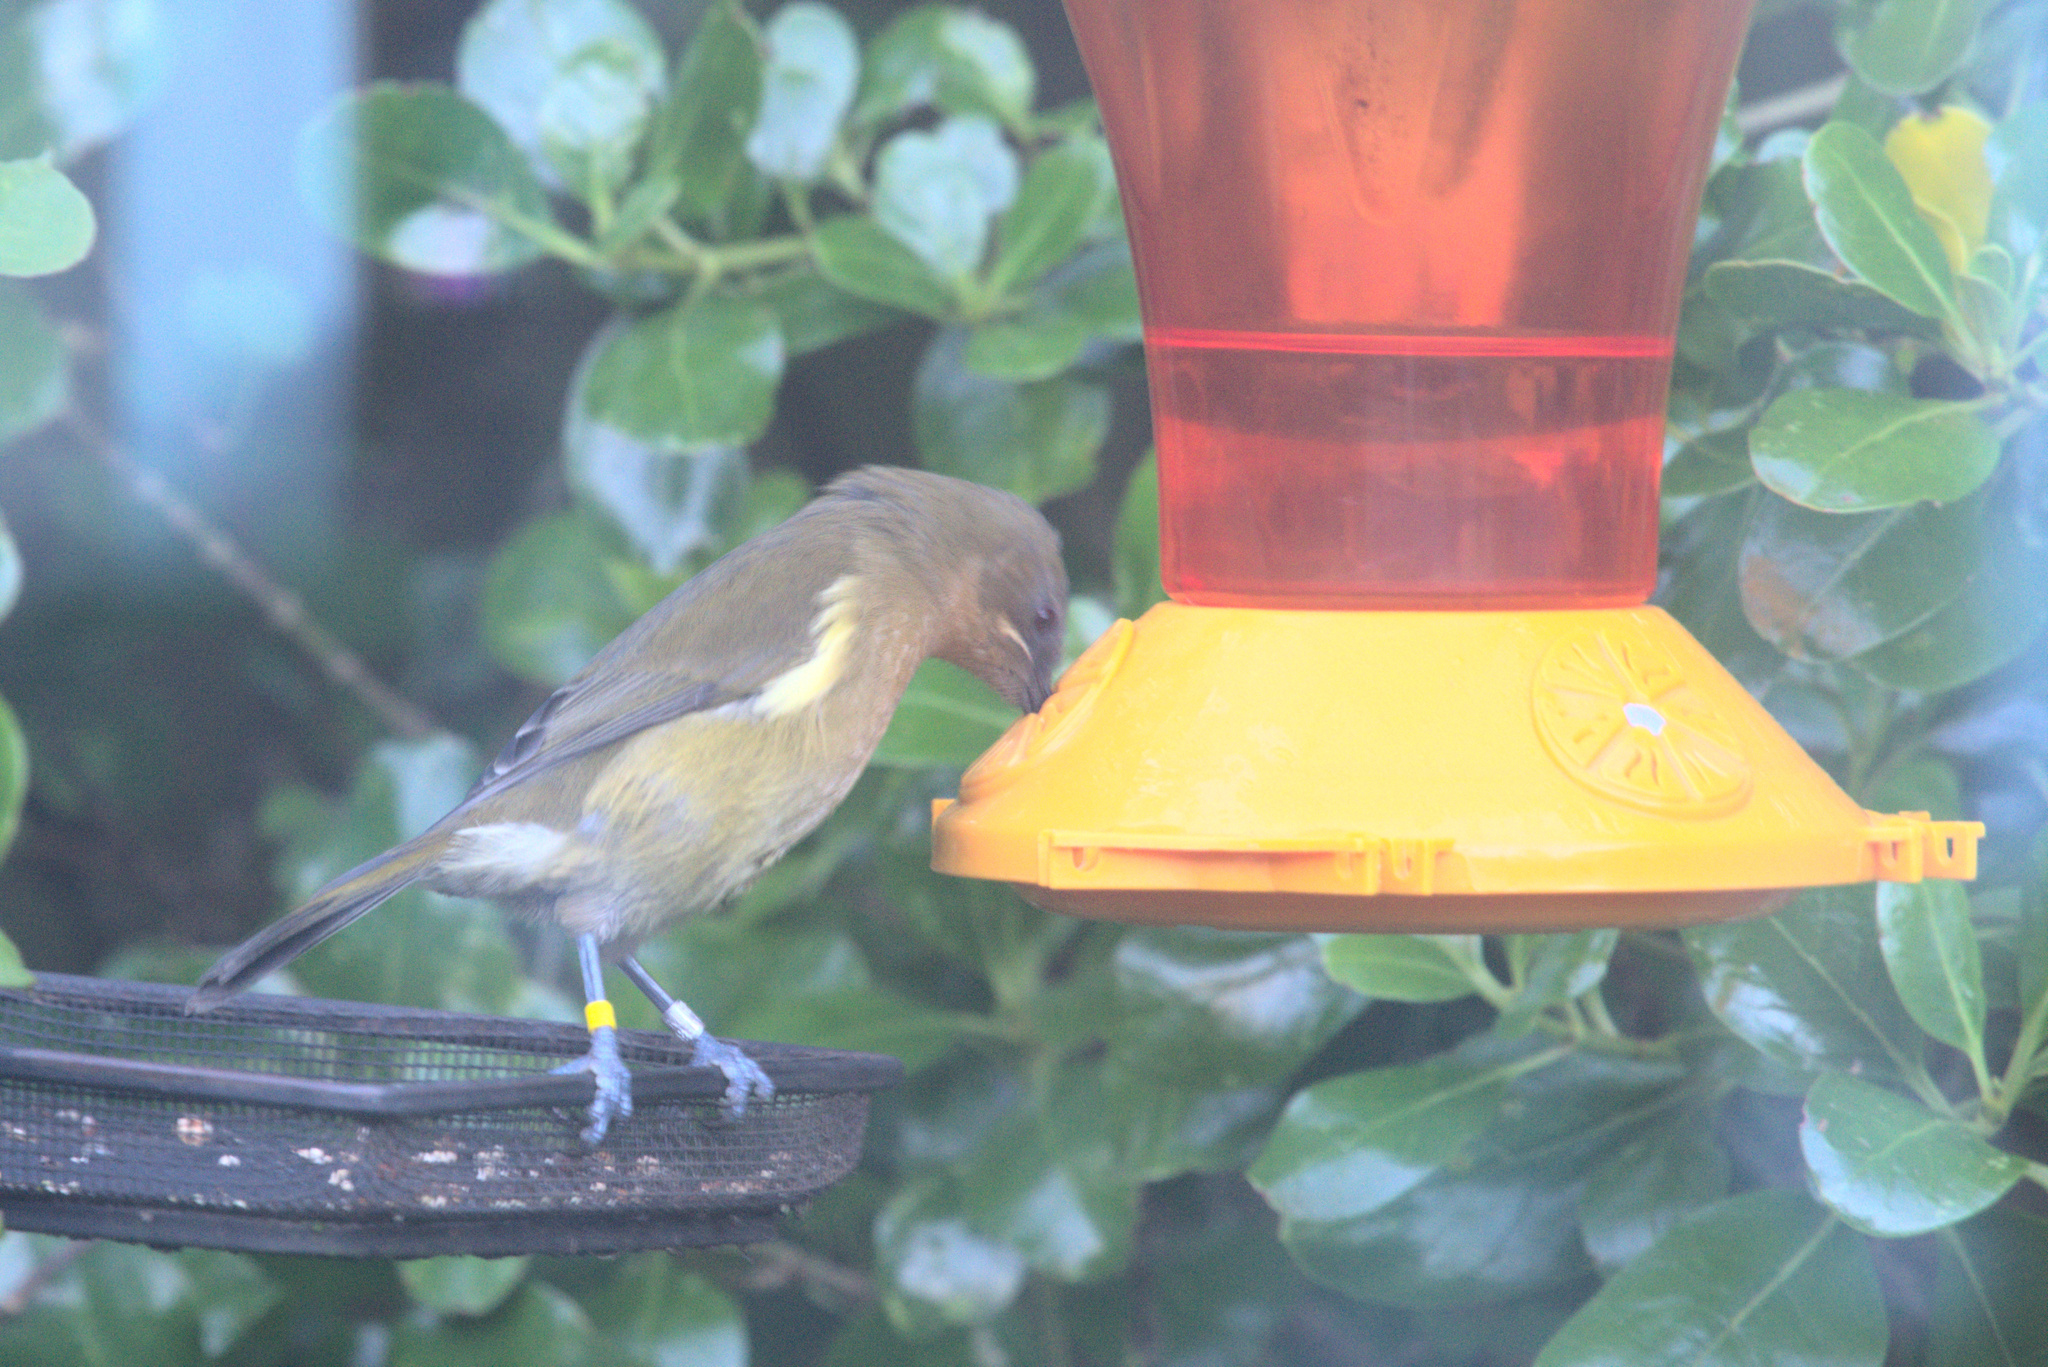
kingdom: Animalia
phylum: Chordata
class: Aves
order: Passeriformes
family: Meliphagidae
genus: Anthornis
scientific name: Anthornis melanura
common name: New zealand bellbird
